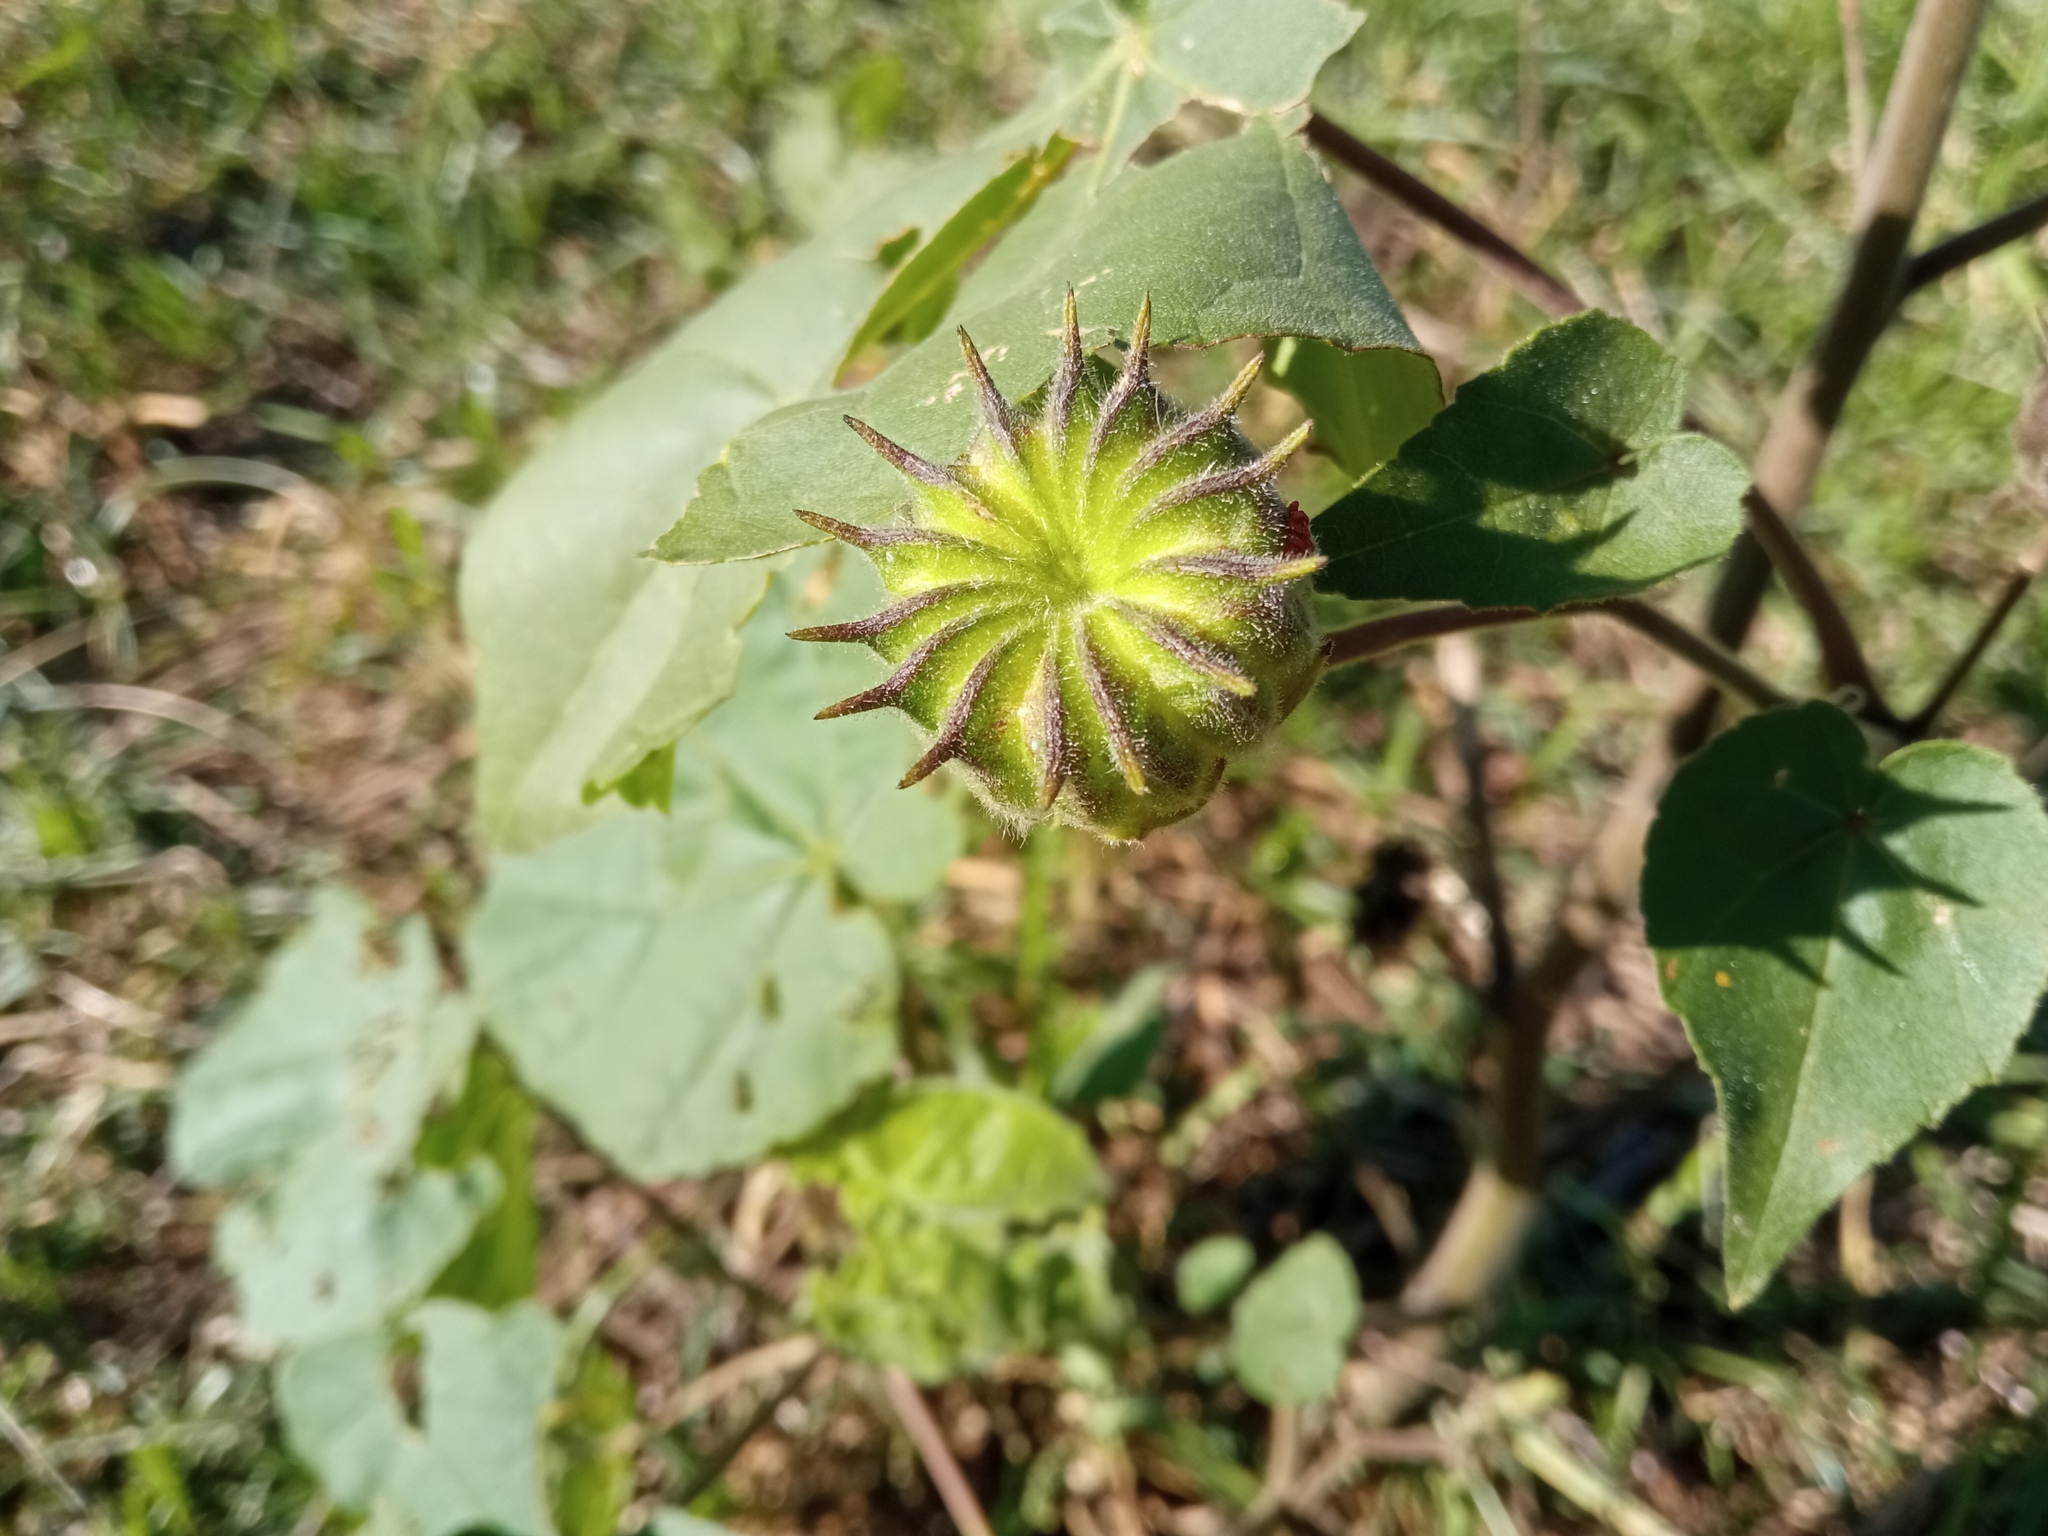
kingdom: Plantae
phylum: Tracheophyta
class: Magnoliopsida
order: Malvales
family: Malvaceae
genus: Abutilon
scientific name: Abutilon theophrasti
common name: Velvetleaf
